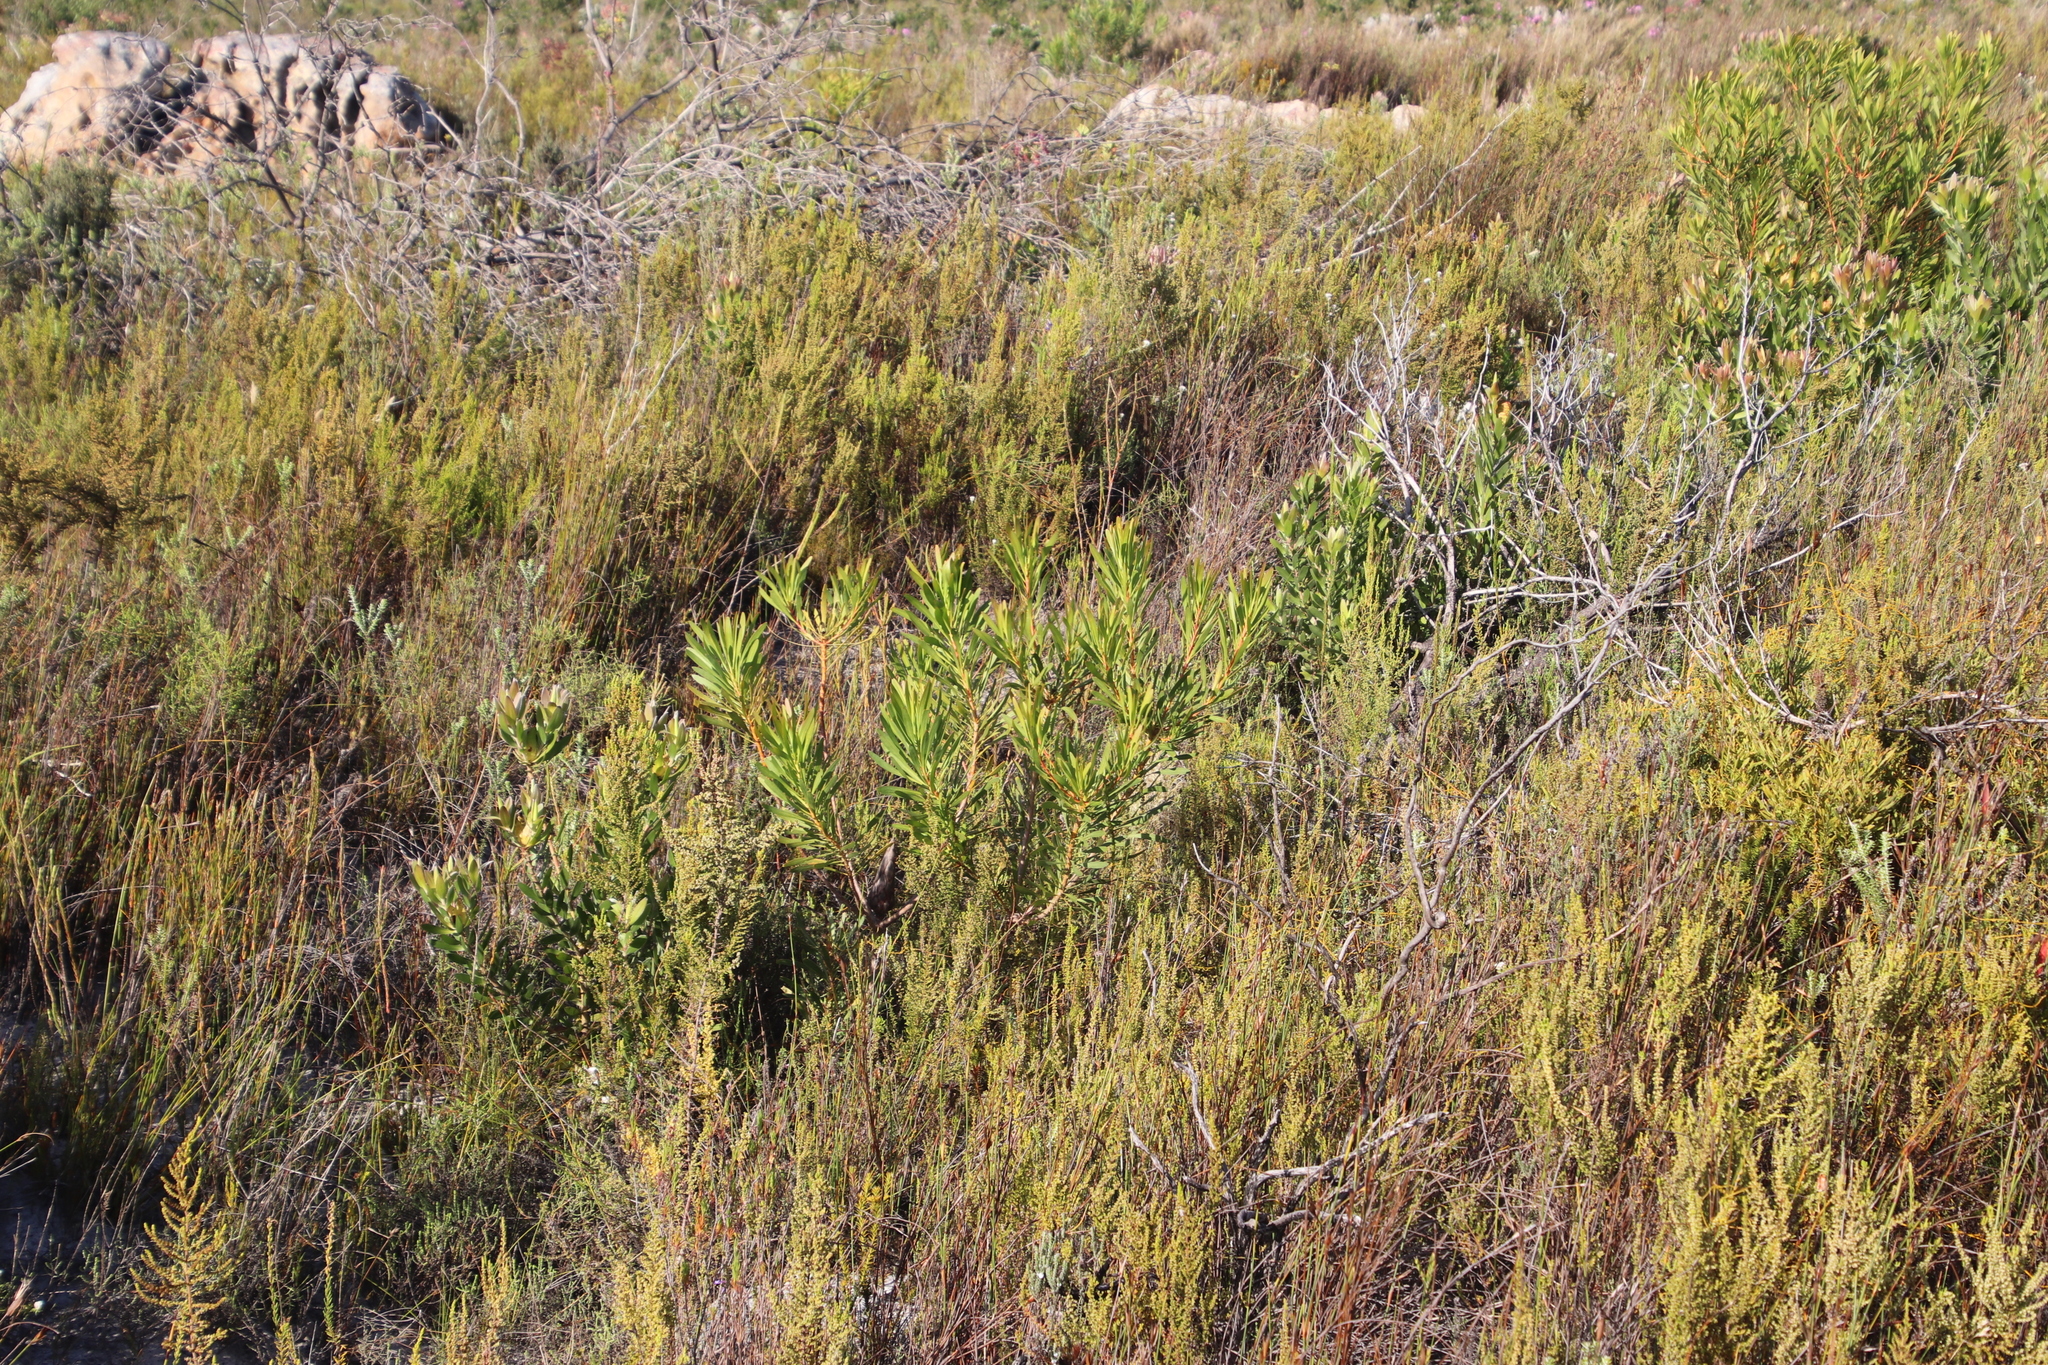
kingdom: Plantae
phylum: Tracheophyta
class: Magnoliopsida
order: Proteales
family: Proteaceae
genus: Protea
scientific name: Protea repens
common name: Sugarbush
